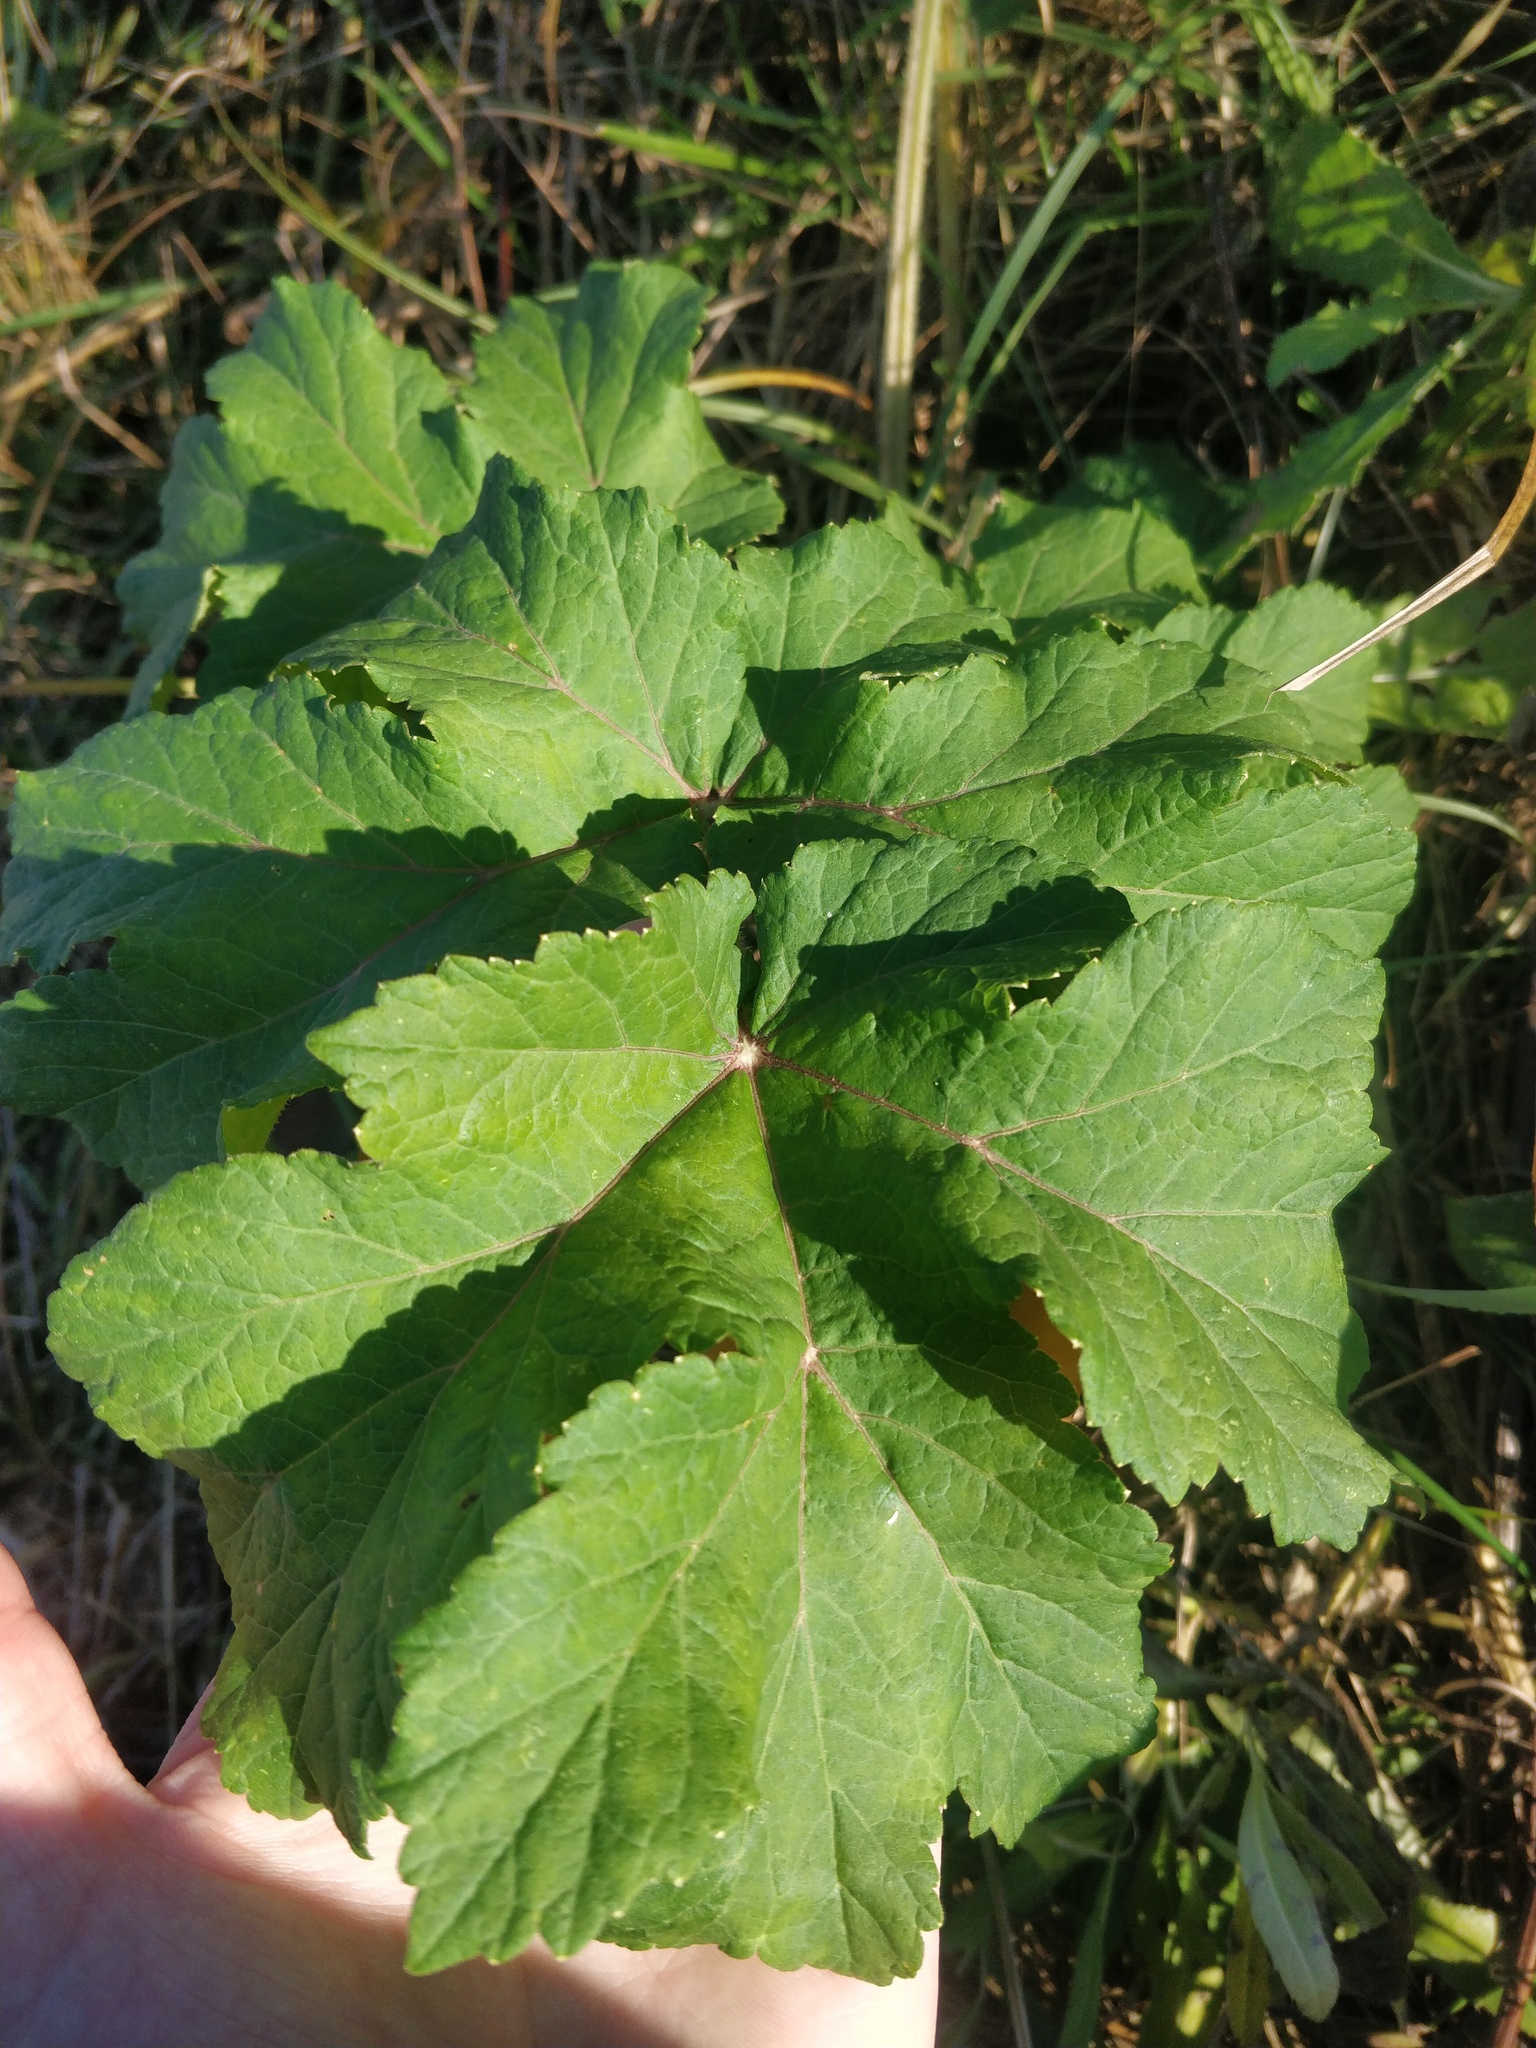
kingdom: Plantae
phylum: Tracheophyta
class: Magnoliopsida
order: Apiales
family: Apiaceae
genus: Heracleum
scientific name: Heracleum sphondylium
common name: Hogweed
